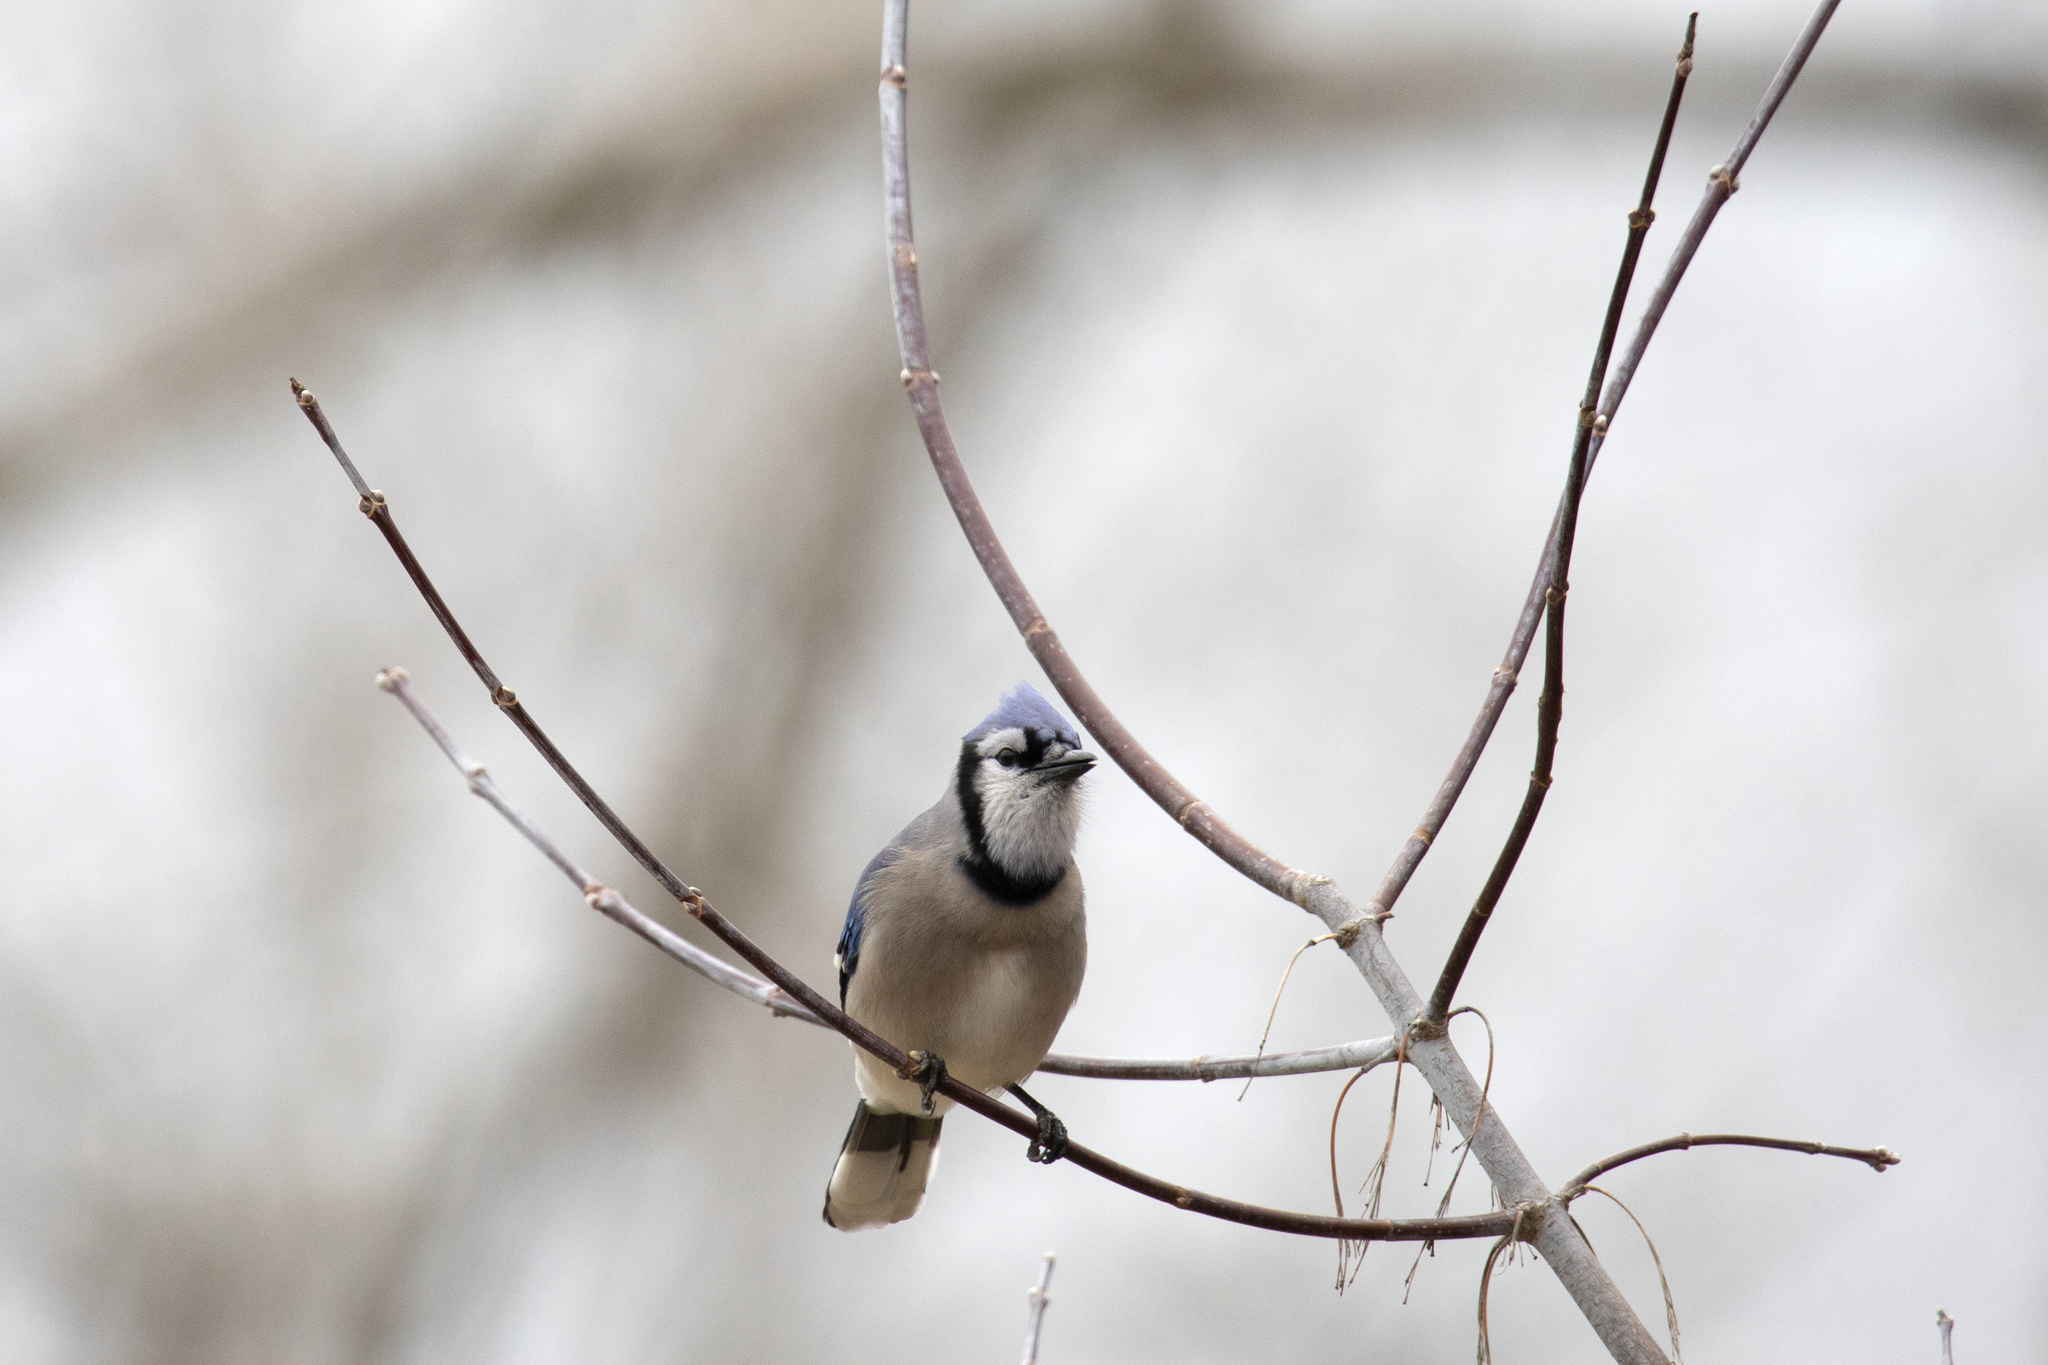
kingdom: Animalia
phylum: Chordata
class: Aves
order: Passeriformes
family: Corvidae
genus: Cyanocitta
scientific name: Cyanocitta cristata
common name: Blue jay
